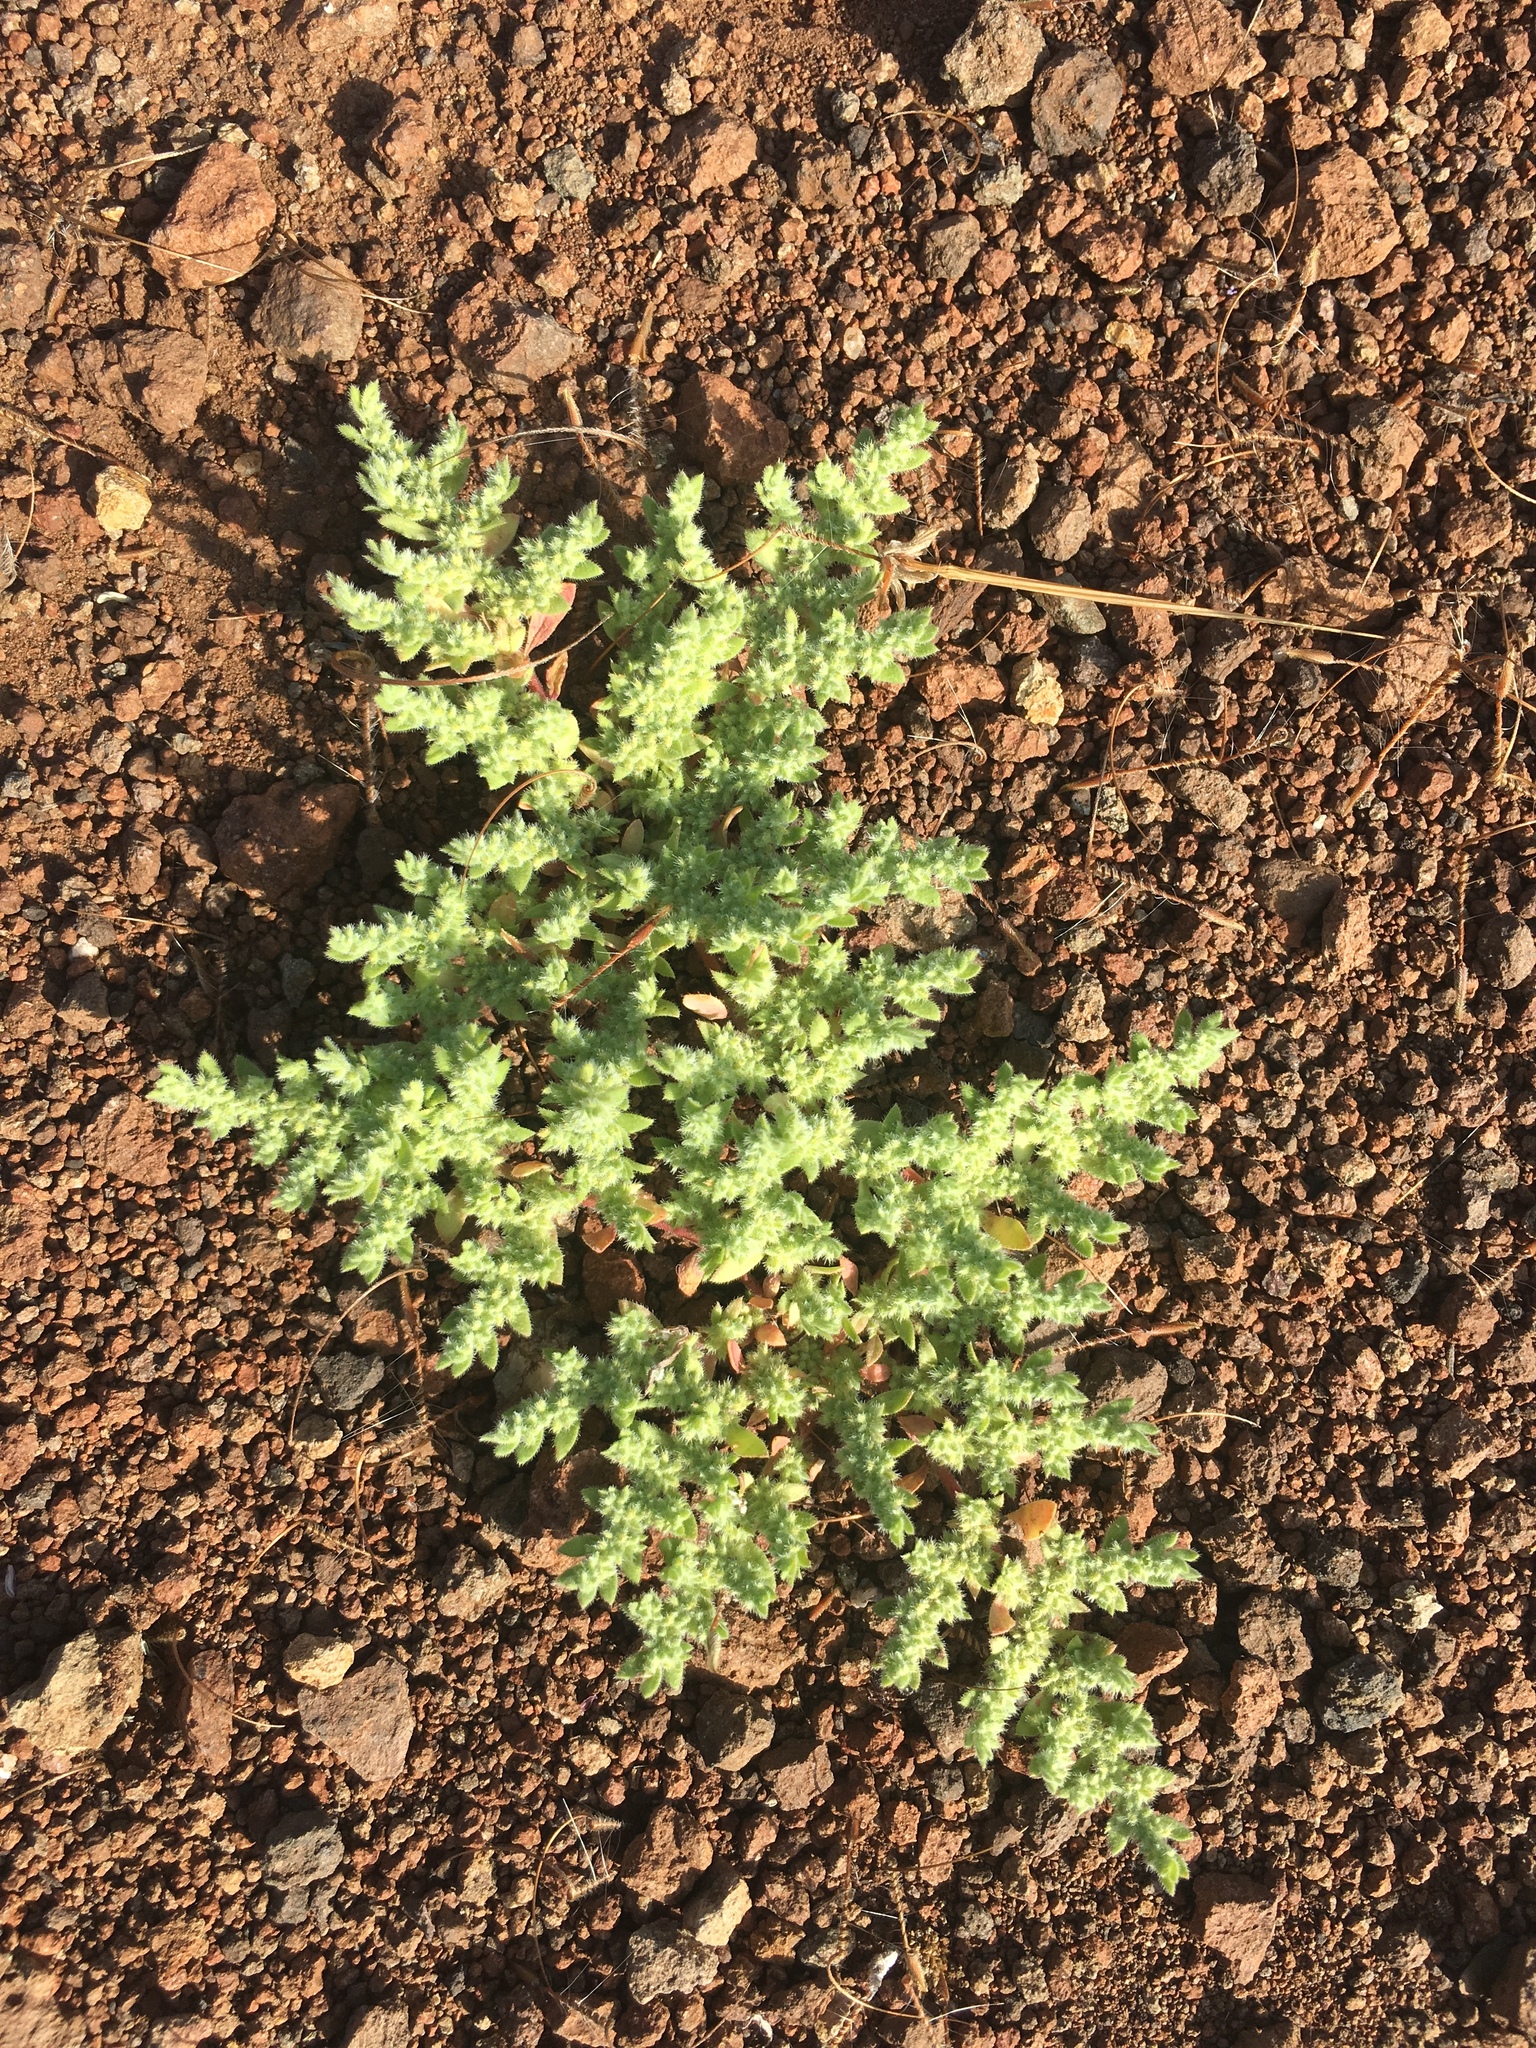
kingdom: Plantae
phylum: Tracheophyta
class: Magnoliopsida
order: Caryophyllales
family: Caryophyllaceae
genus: Herniaria
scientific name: Herniaria hirsuta
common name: Hairy rupturewort
